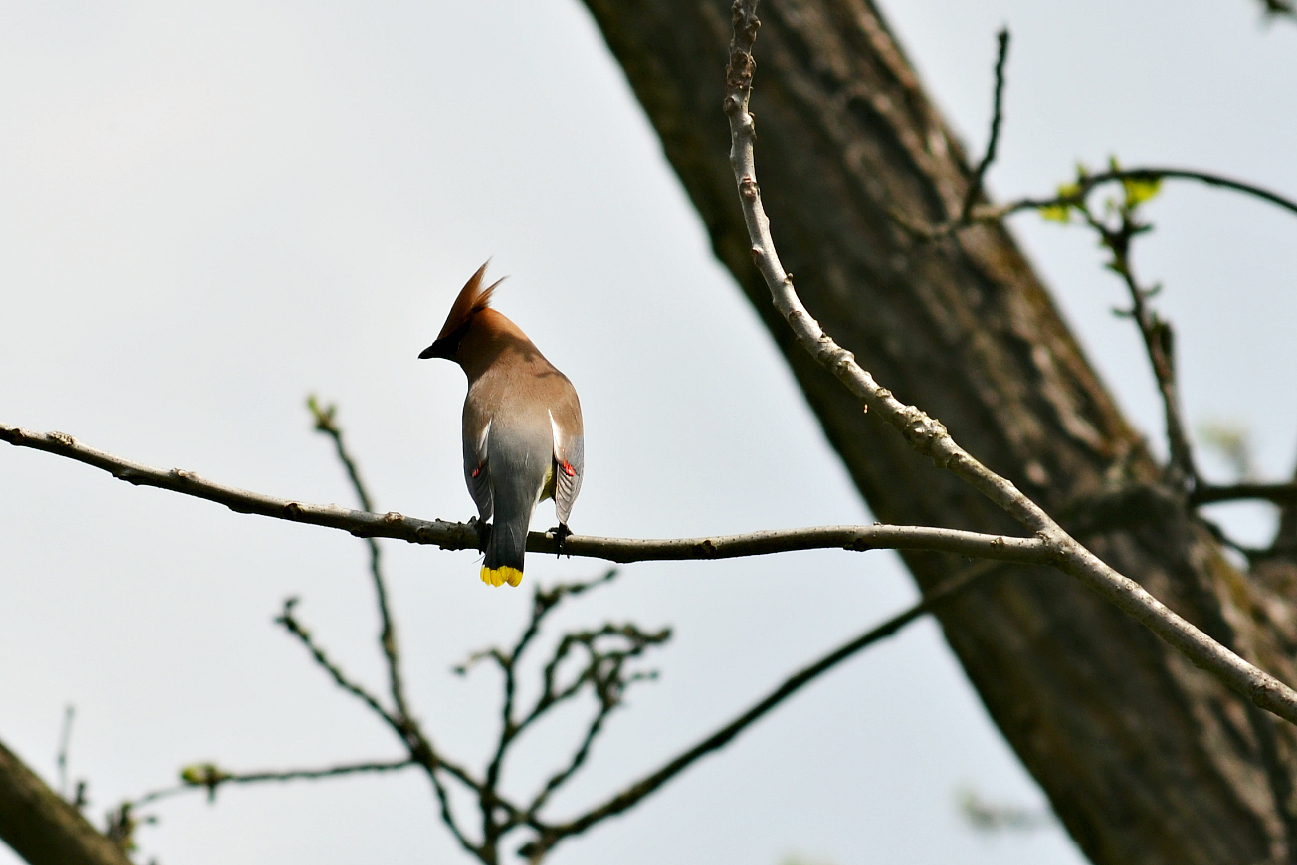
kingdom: Animalia
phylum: Chordata
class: Aves
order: Passeriformes
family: Bombycillidae
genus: Bombycilla
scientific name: Bombycilla cedrorum
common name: Cedar waxwing
